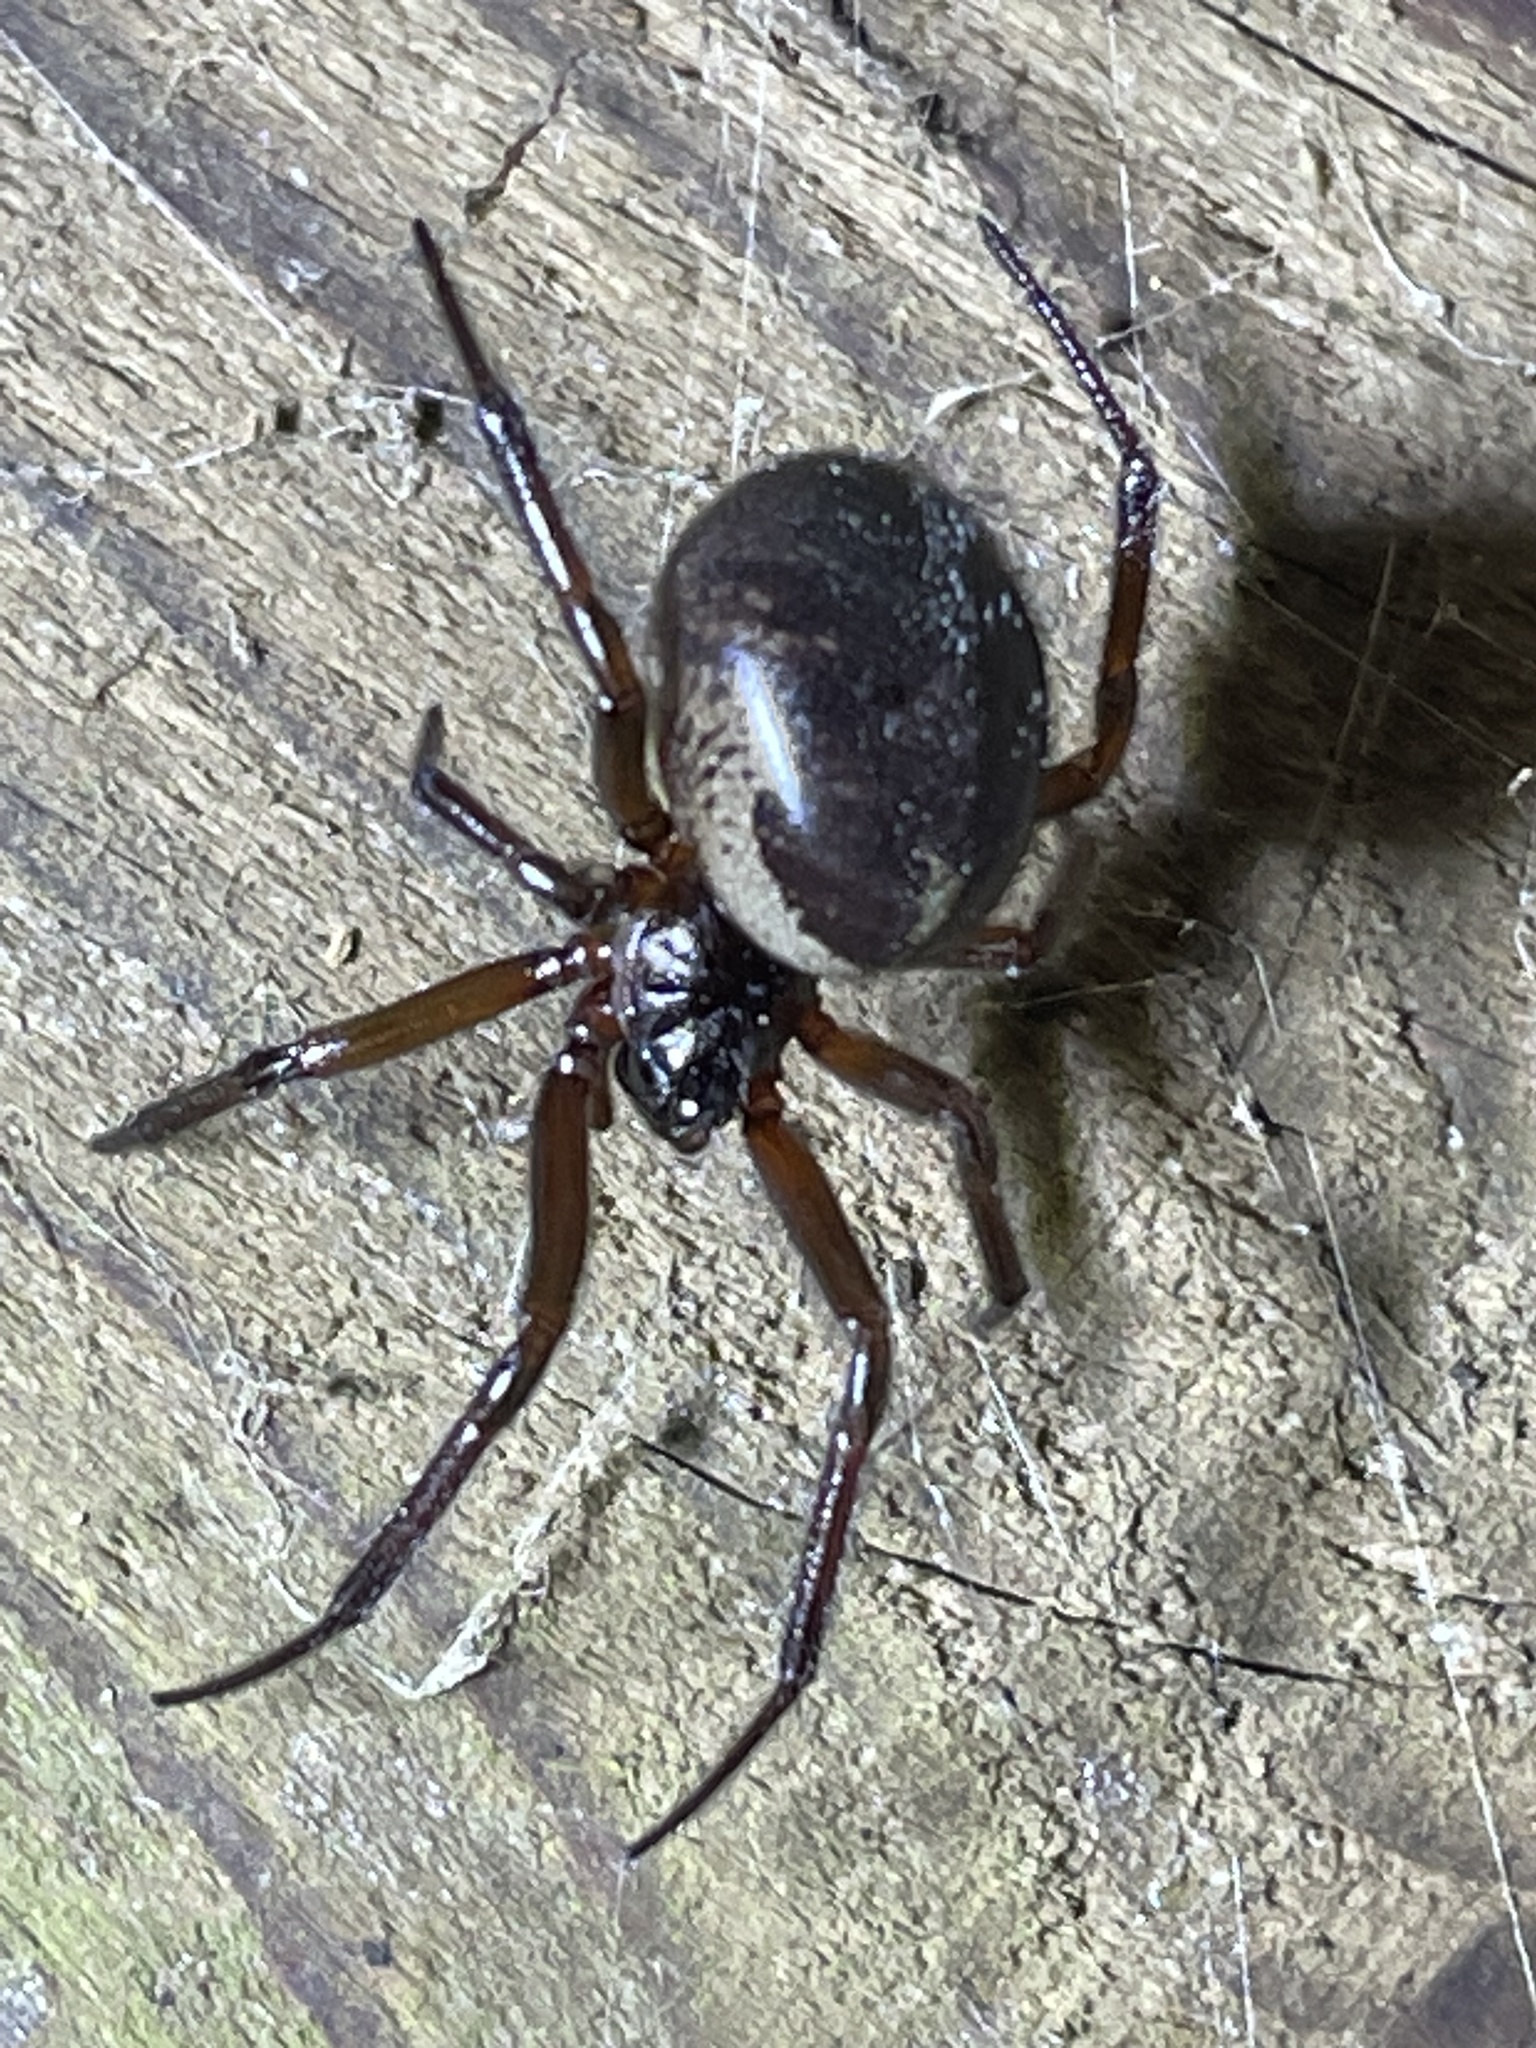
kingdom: Animalia
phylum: Arthropoda
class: Arachnida
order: Araneae
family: Theridiidae
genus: Steatoda
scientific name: Steatoda nobilis
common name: Cobweb weaver
